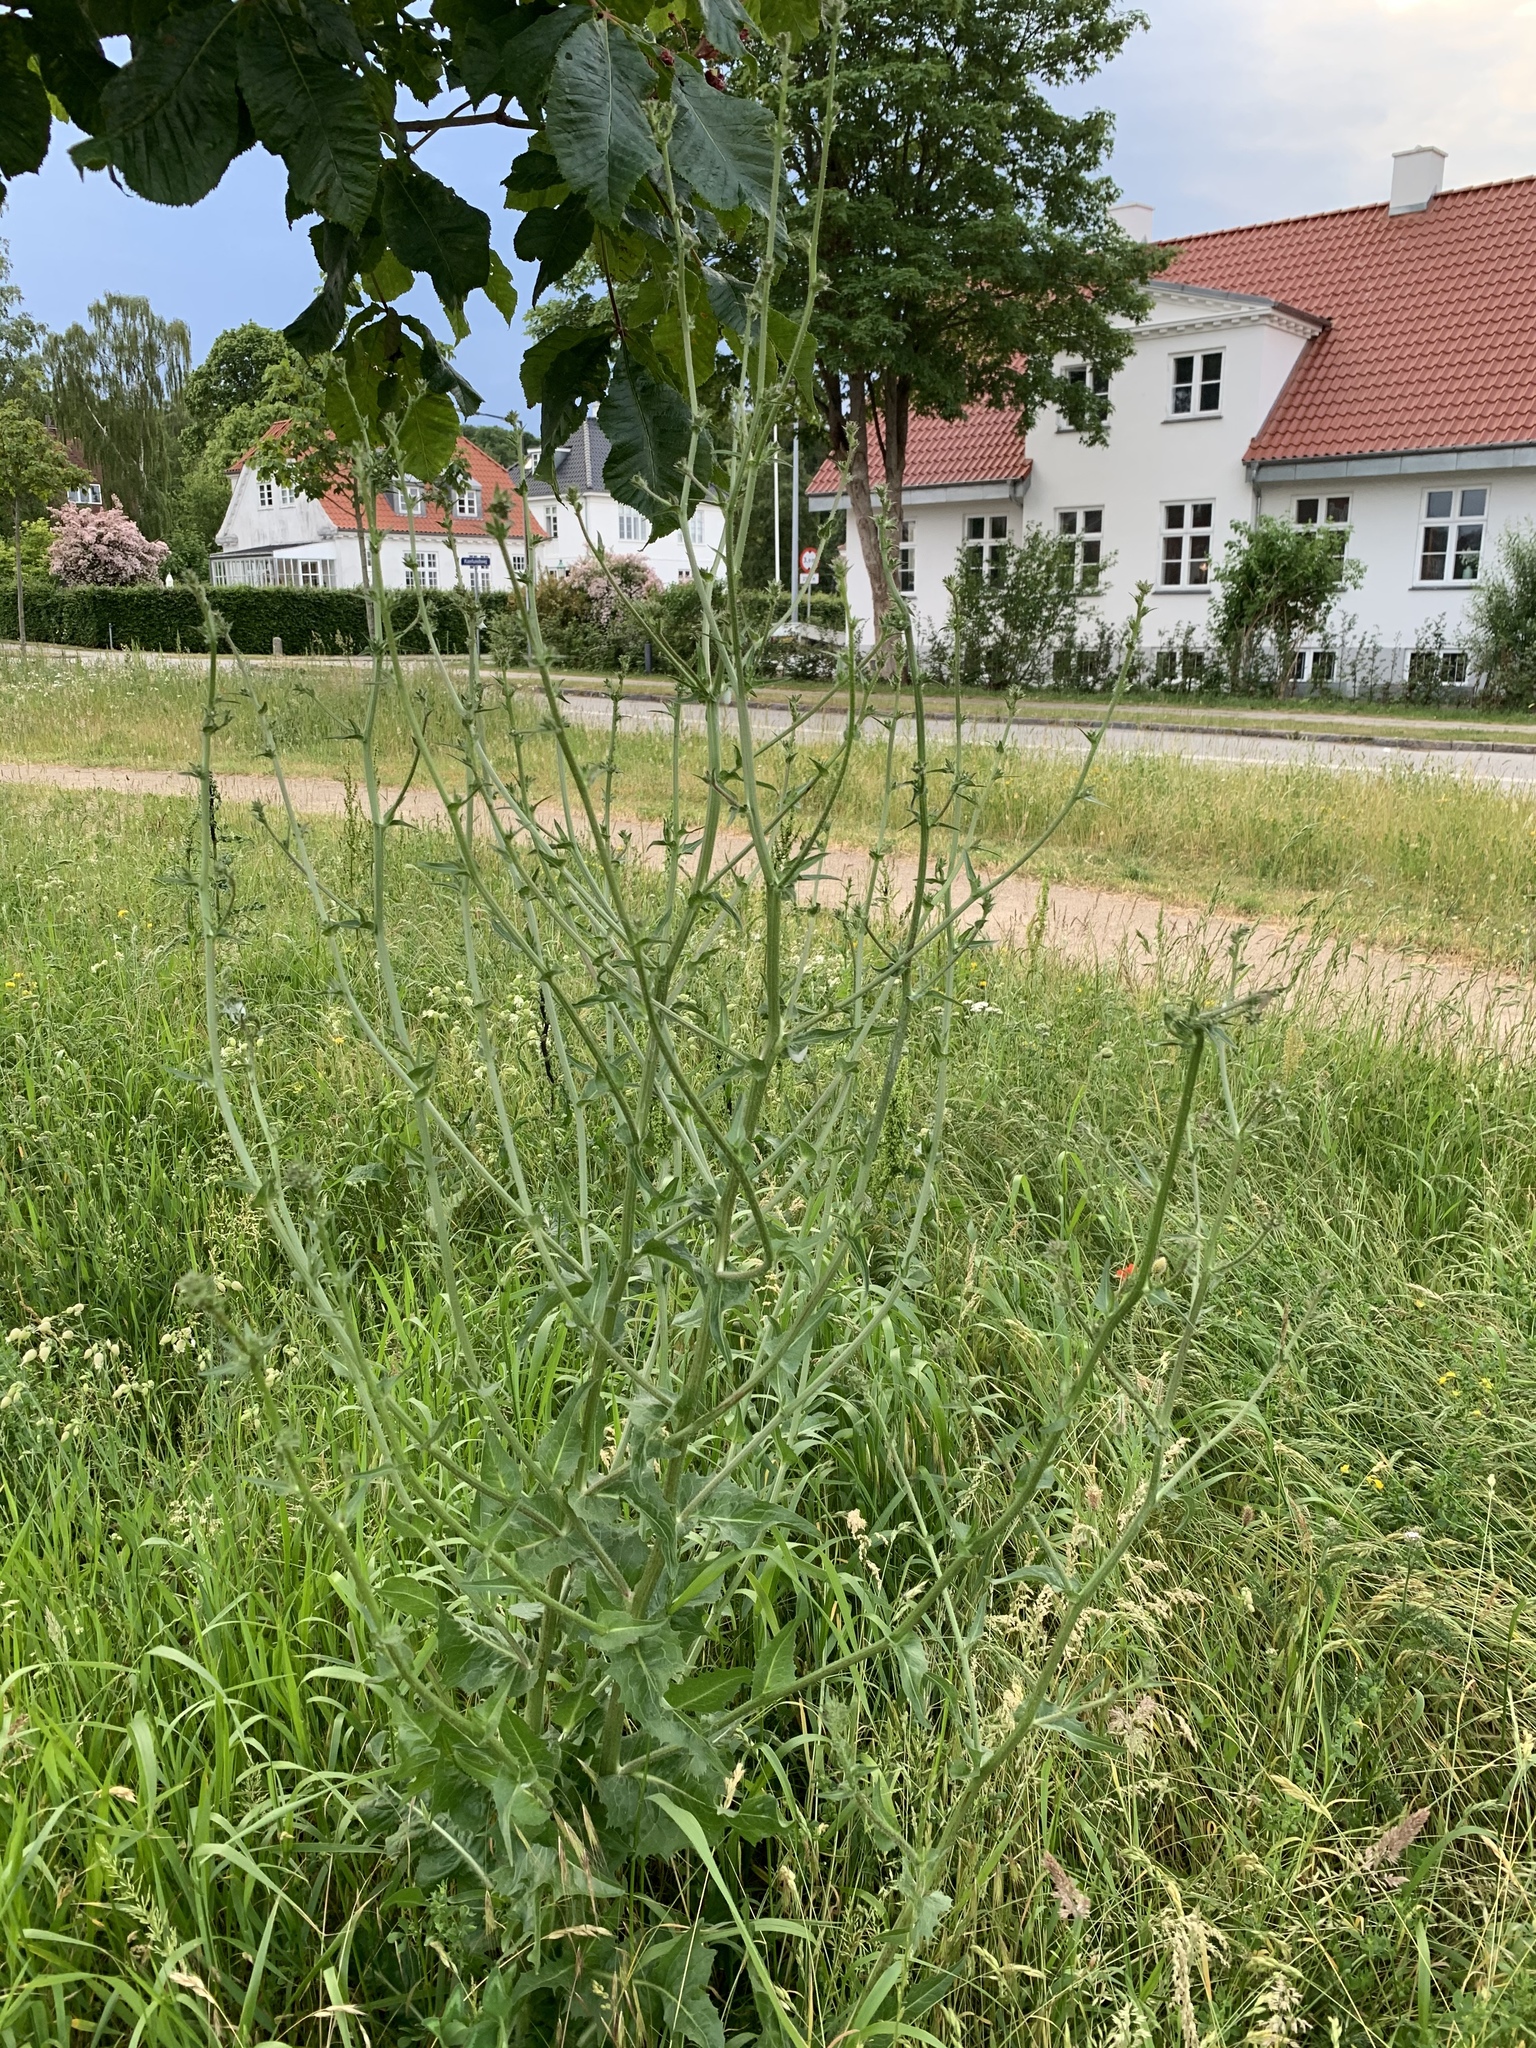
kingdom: Plantae
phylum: Tracheophyta
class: Magnoliopsida
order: Asterales
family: Asteraceae
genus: Cichorium
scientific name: Cichorium intybus
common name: Chicory
